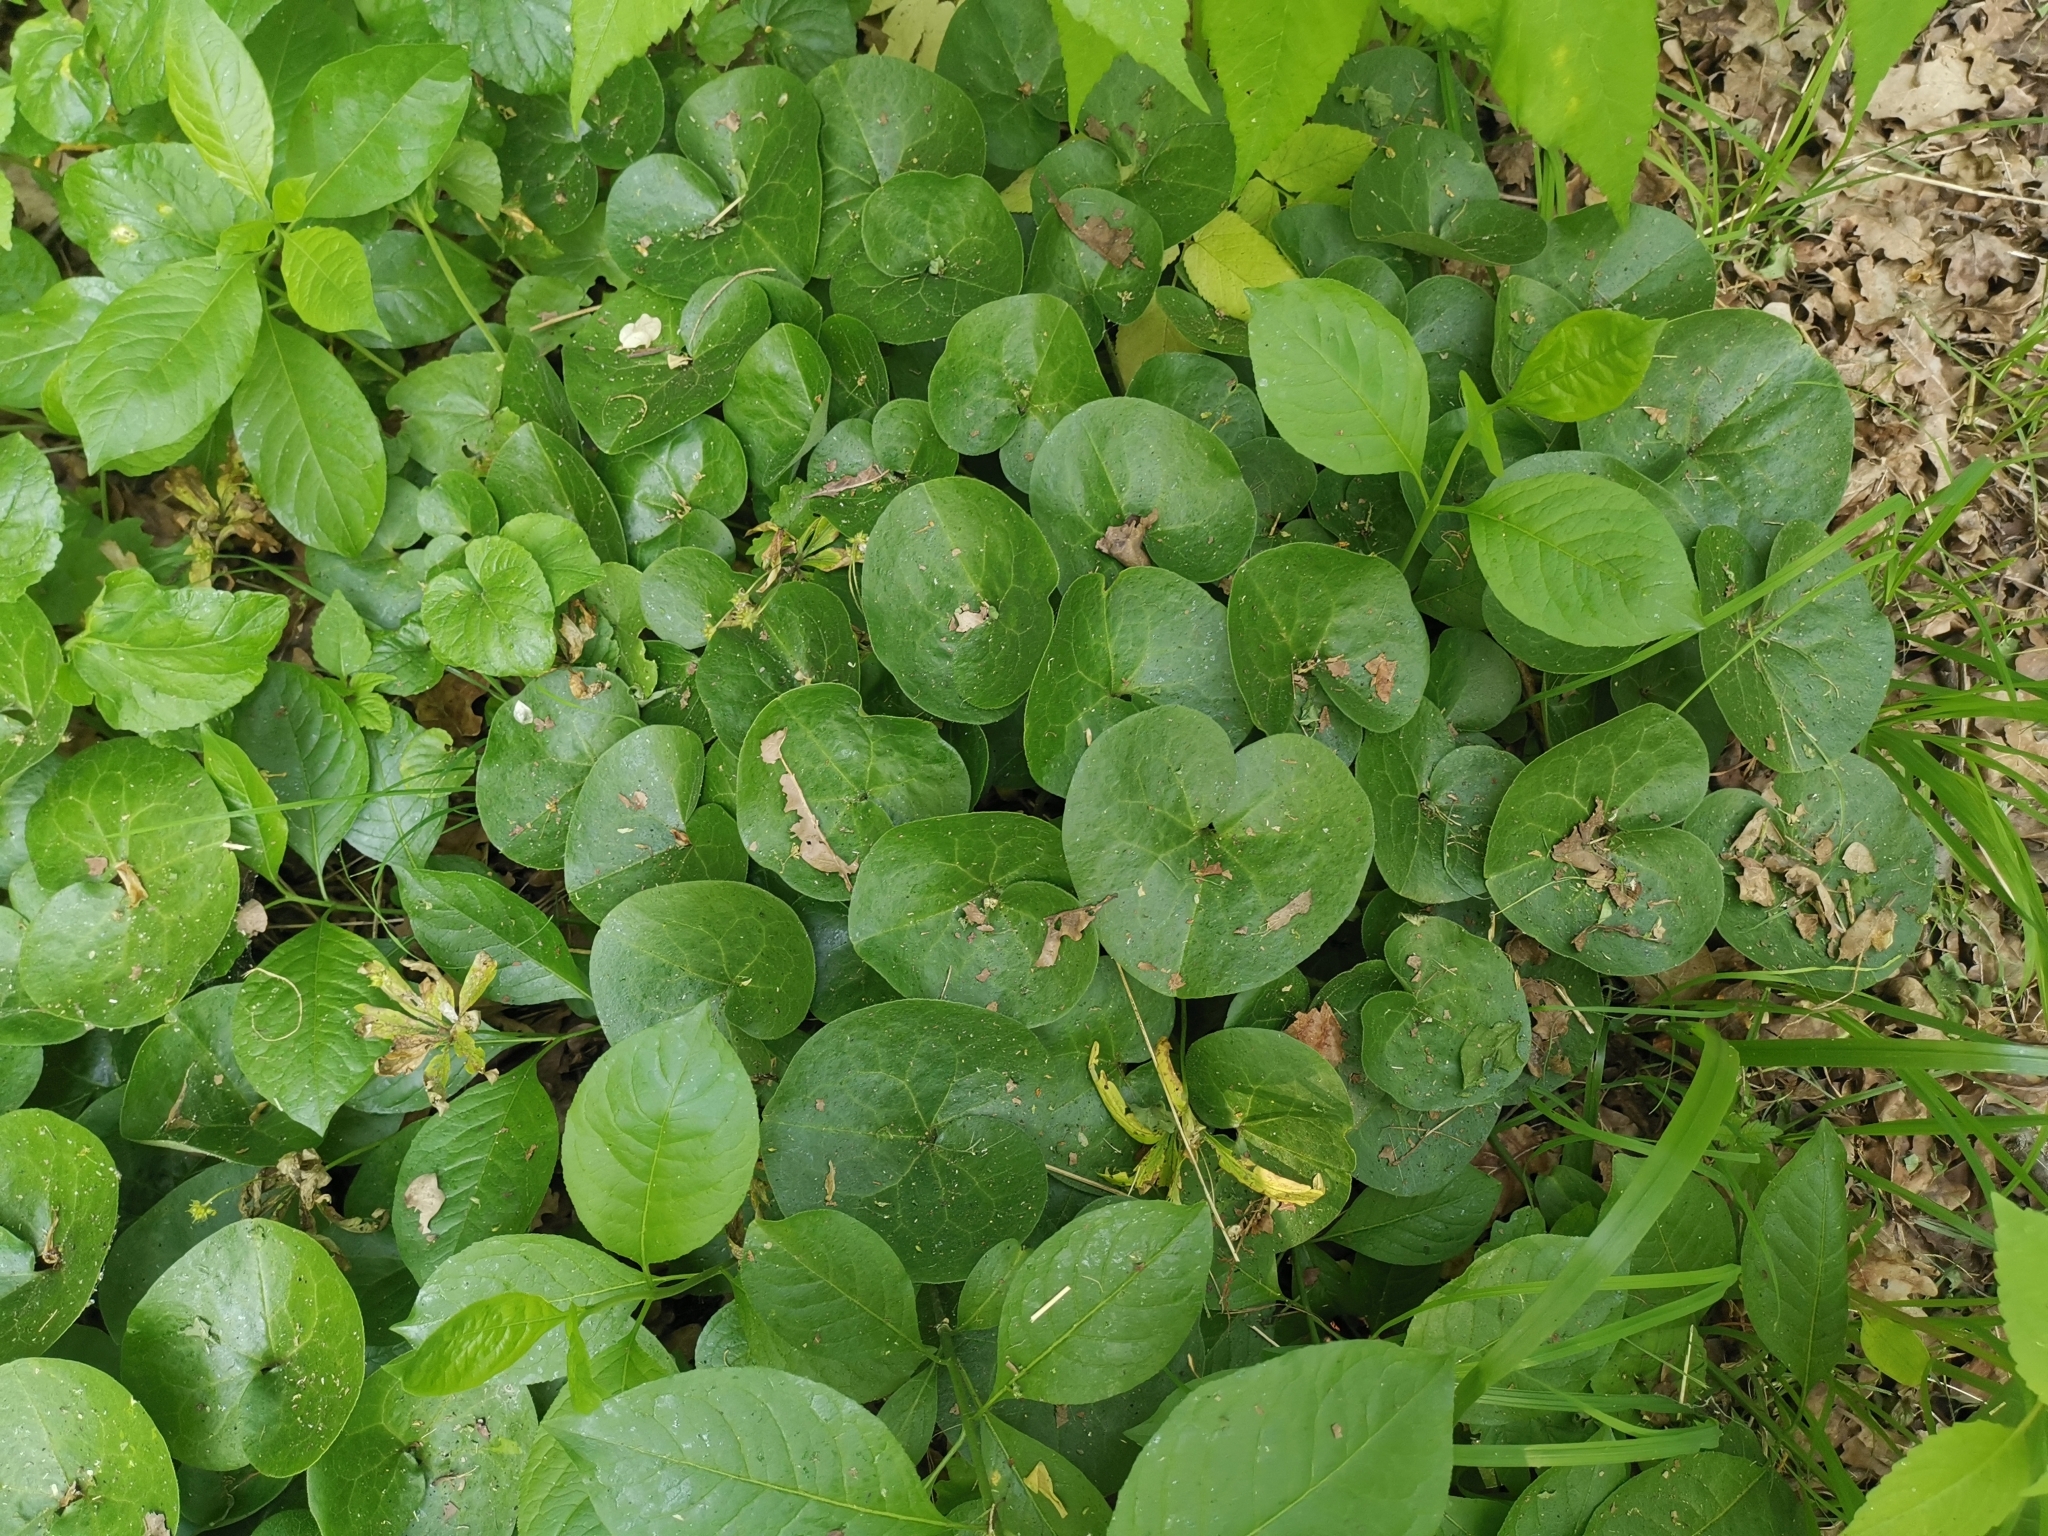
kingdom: Plantae
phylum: Tracheophyta
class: Magnoliopsida
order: Piperales
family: Aristolochiaceae
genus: Asarum
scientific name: Asarum europaeum
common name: Asarabacca
